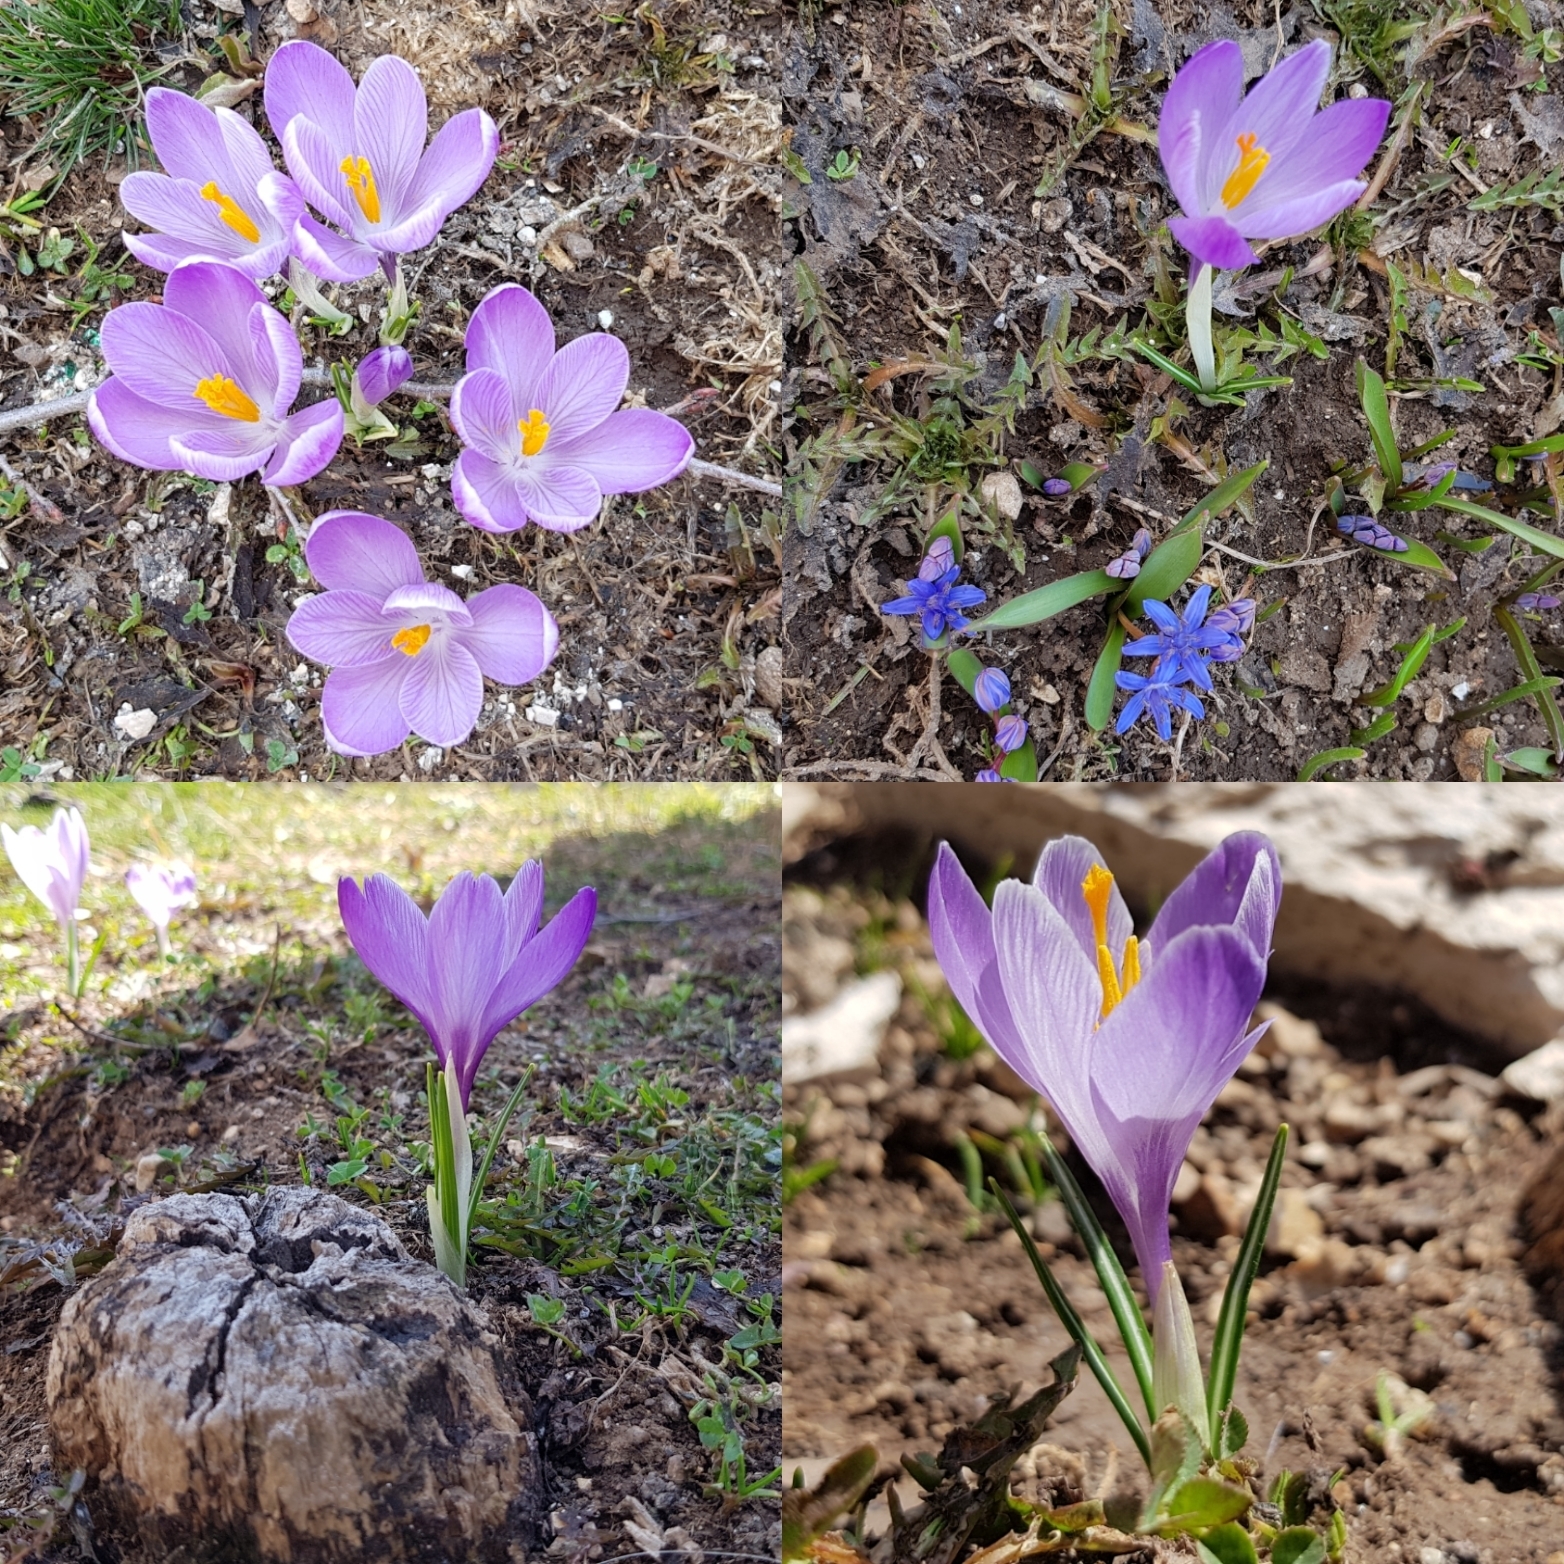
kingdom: Plantae
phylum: Tracheophyta
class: Liliopsida
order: Asparagales
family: Iridaceae
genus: Crocus
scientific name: Crocus neapolitanus
